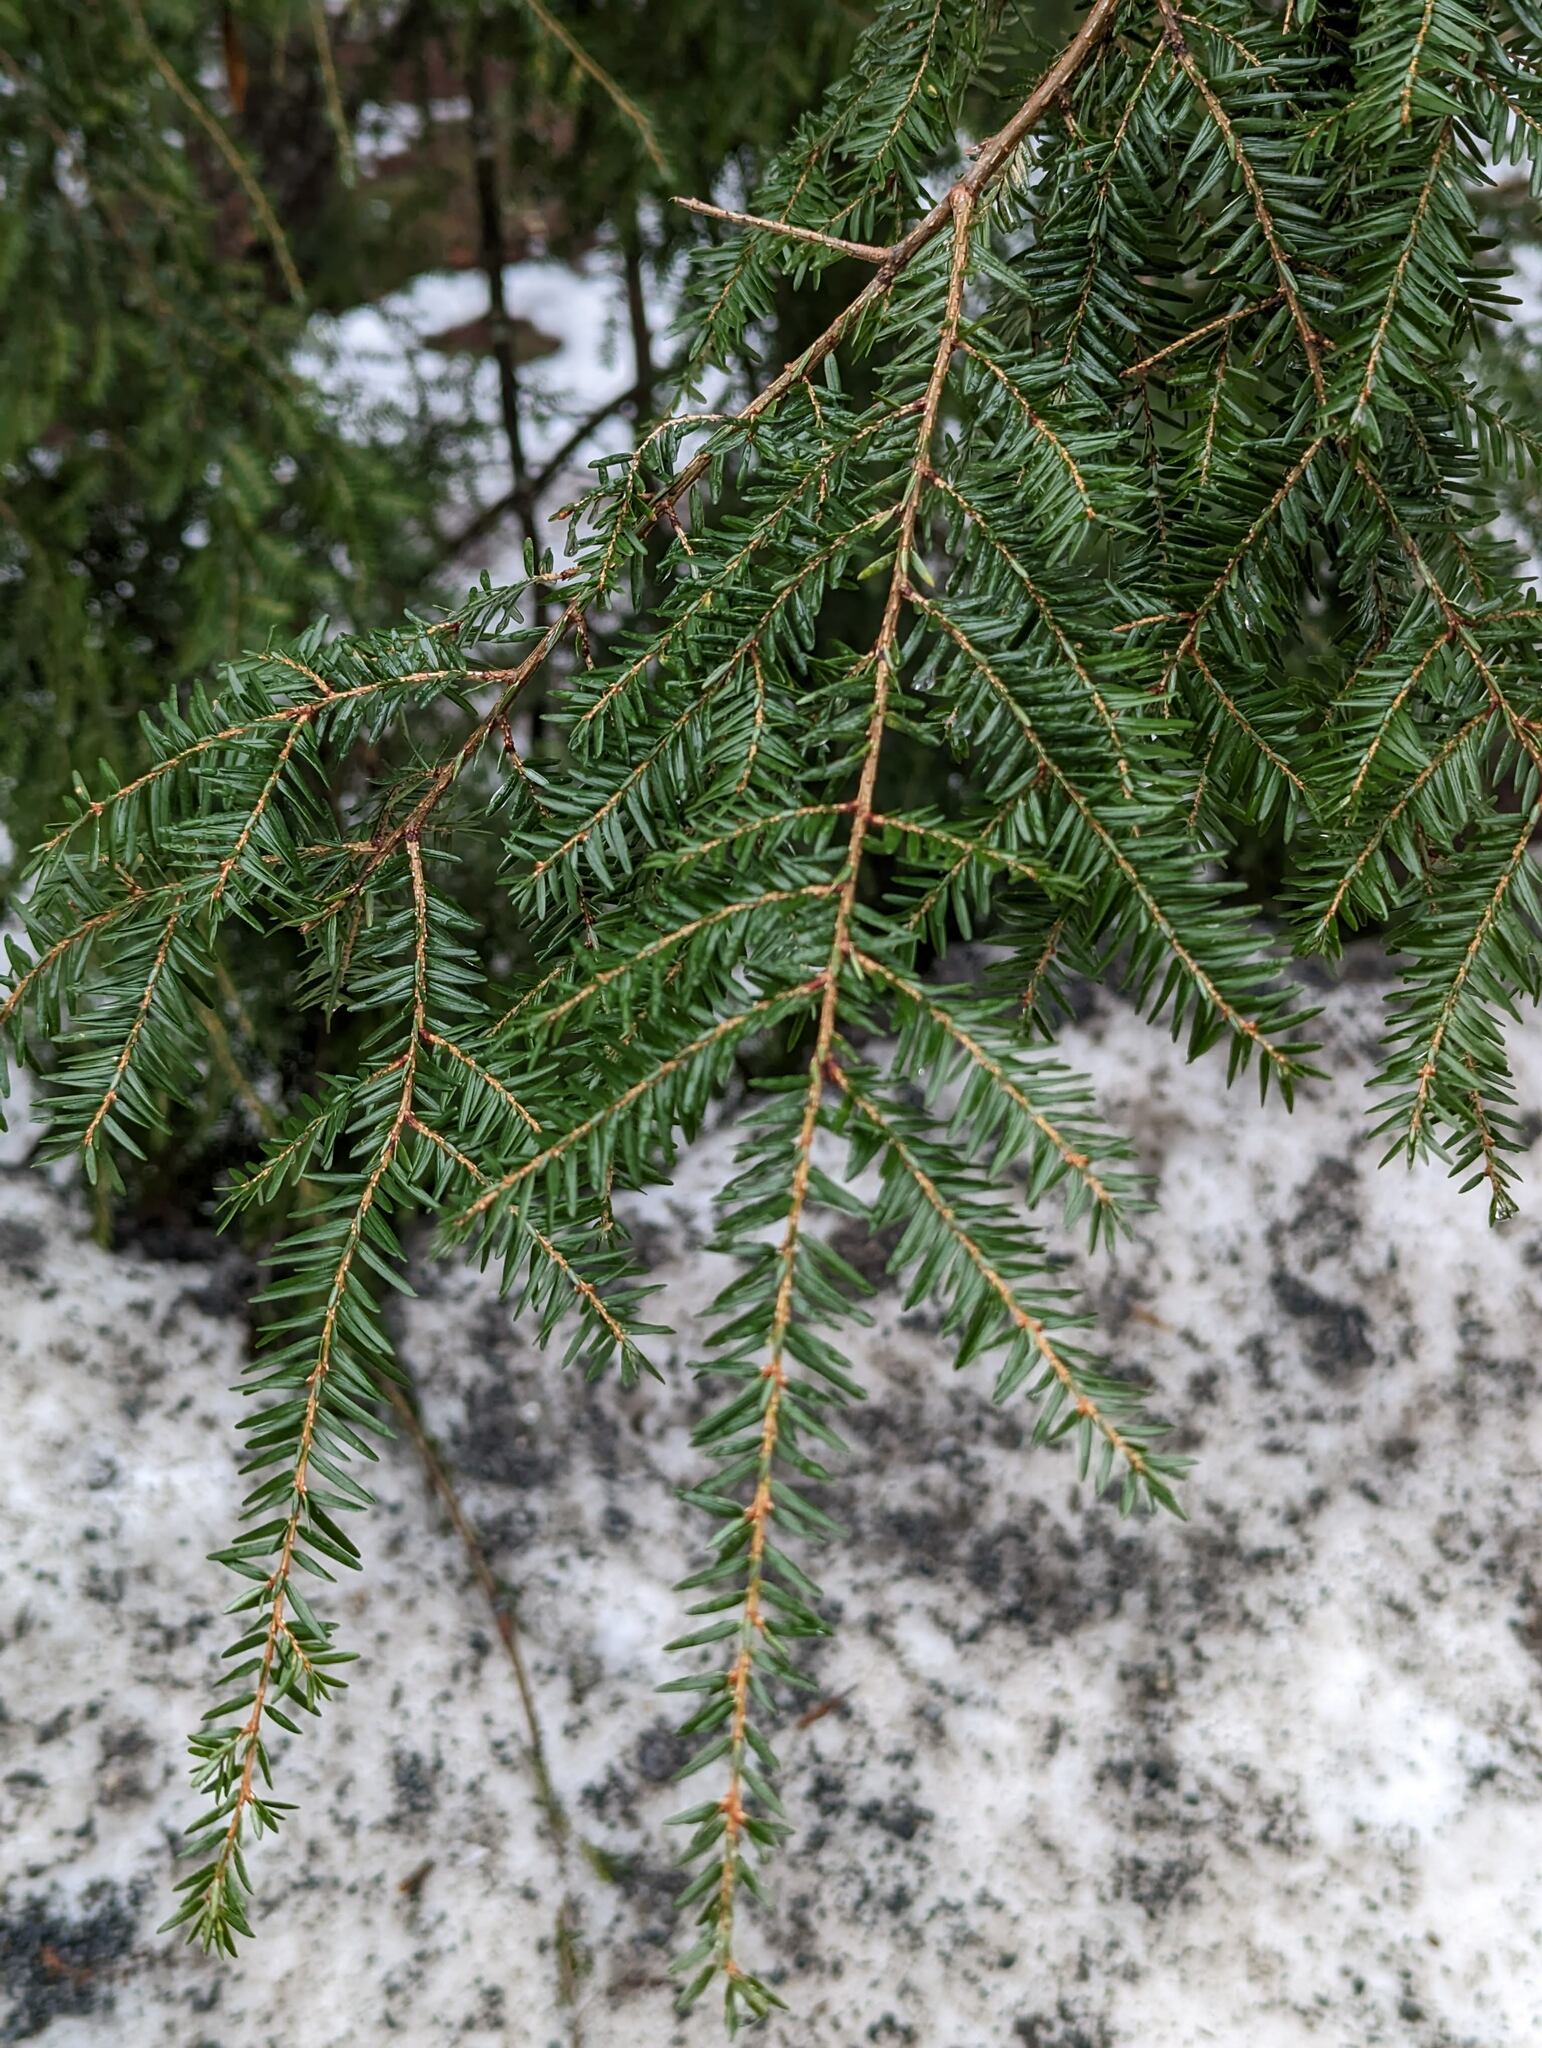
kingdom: Plantae
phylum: Tracheophyta
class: Pinopsida
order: Pinales
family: Pinaceae
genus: Tsuga
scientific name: Tsuga canadensis
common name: Eastern hemlock
